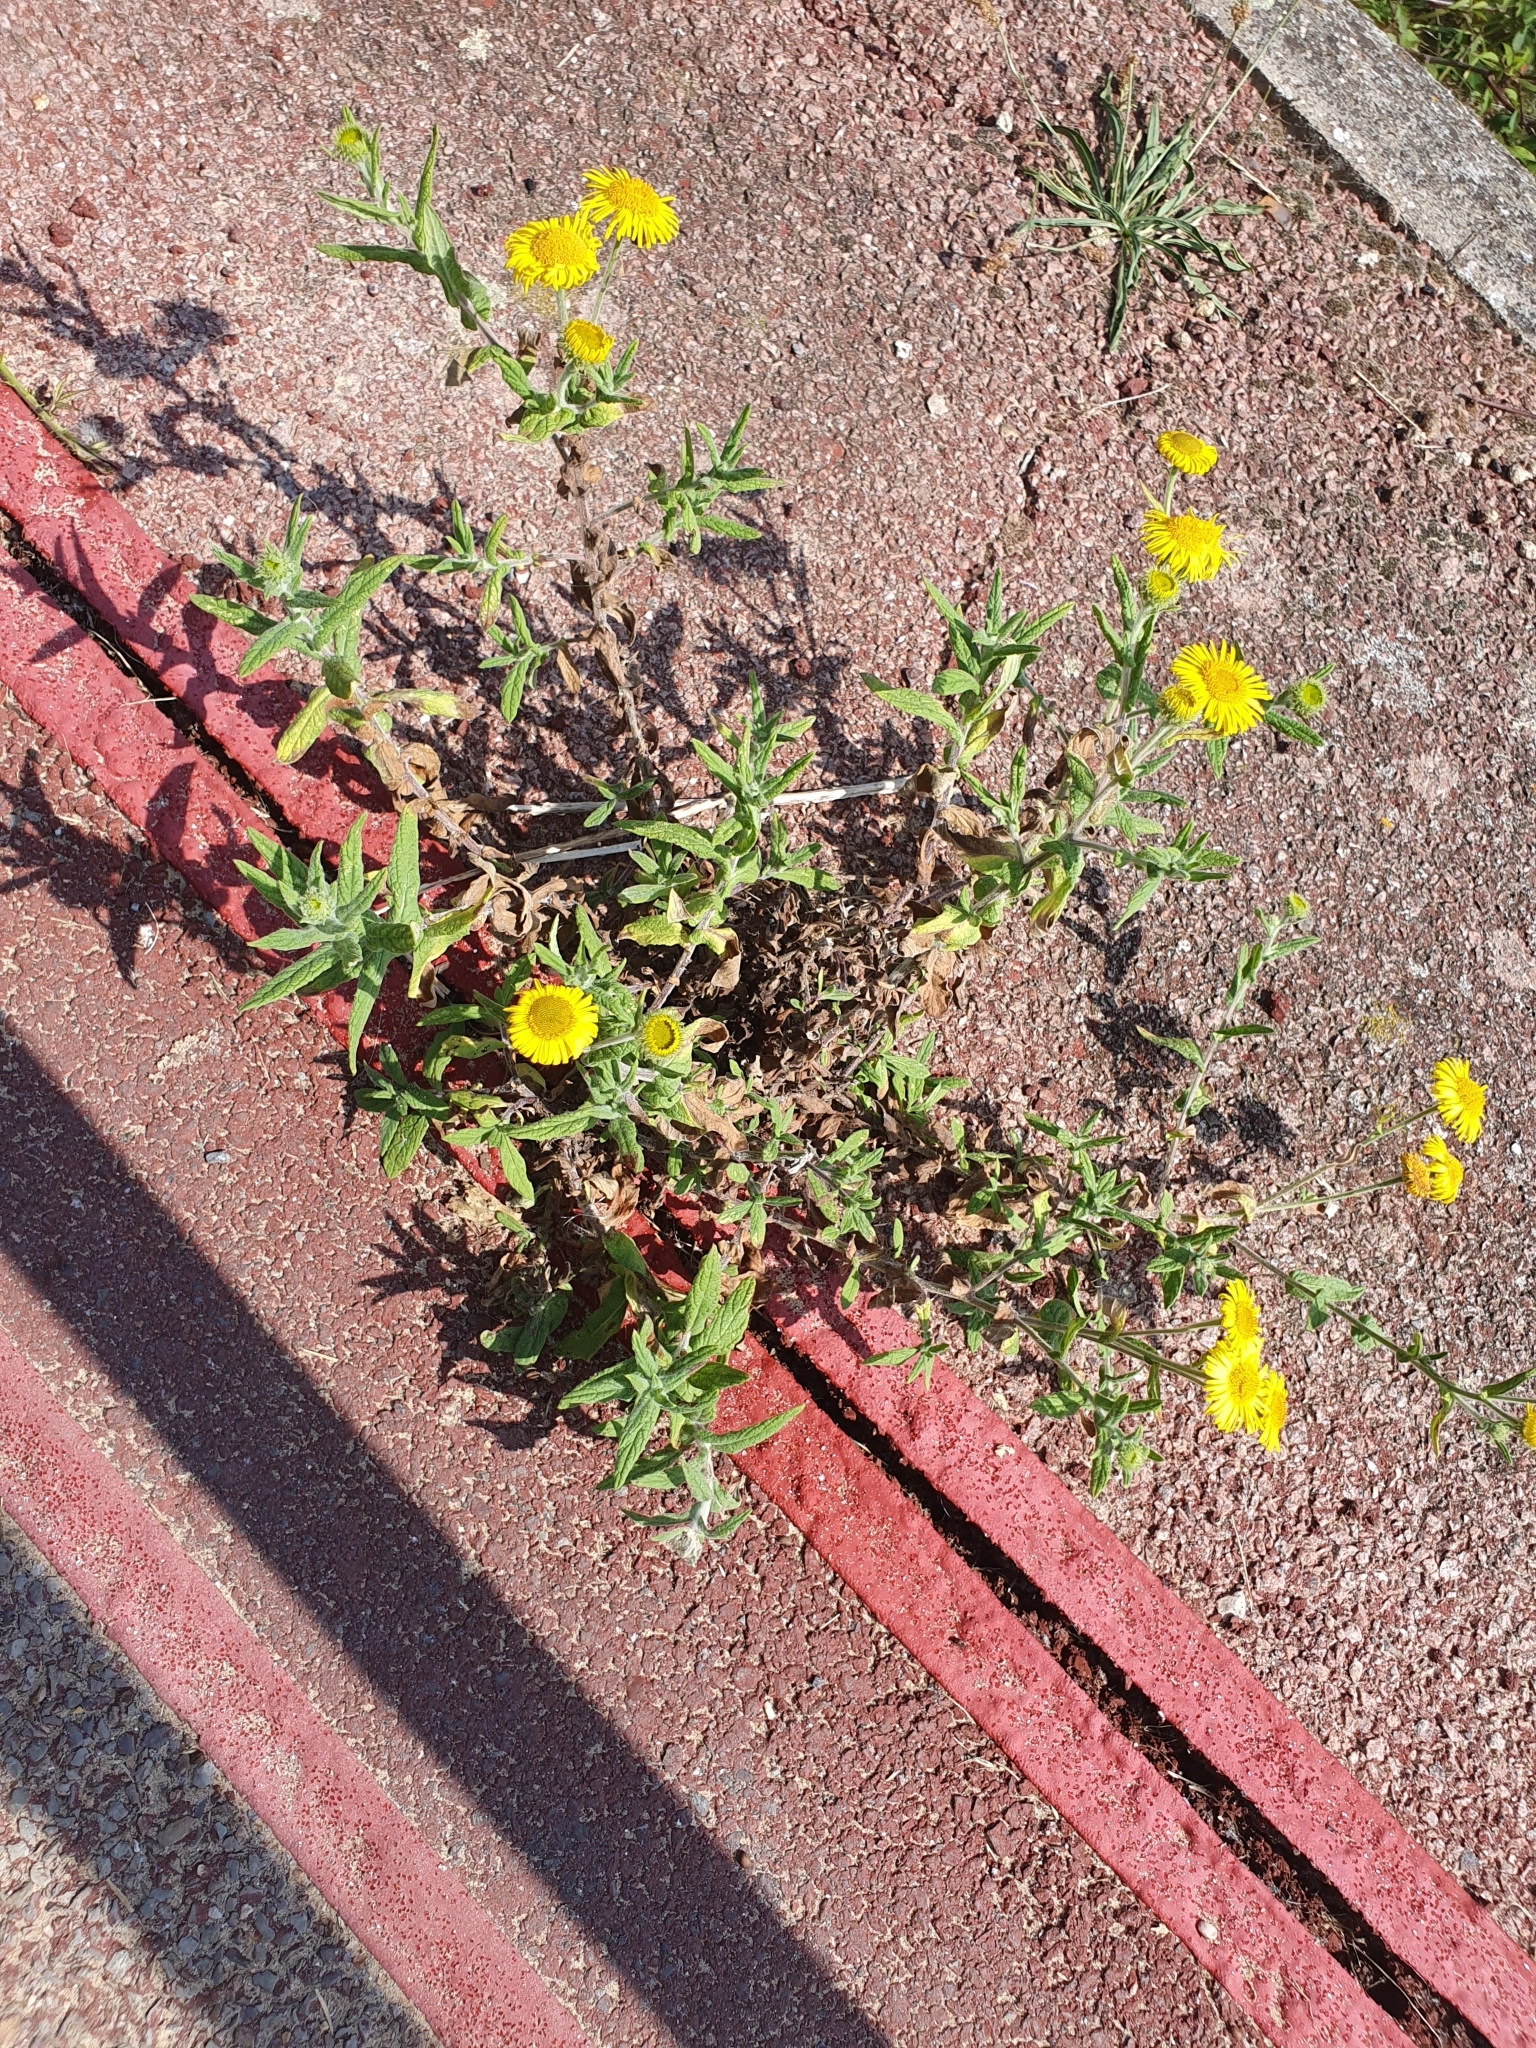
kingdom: Plantae
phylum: Tracheophyta
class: Magnoliopsida
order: Asterales
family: Asteraceae
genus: Pulicaria
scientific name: Pulicaria dysenterica
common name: Common fleabane
